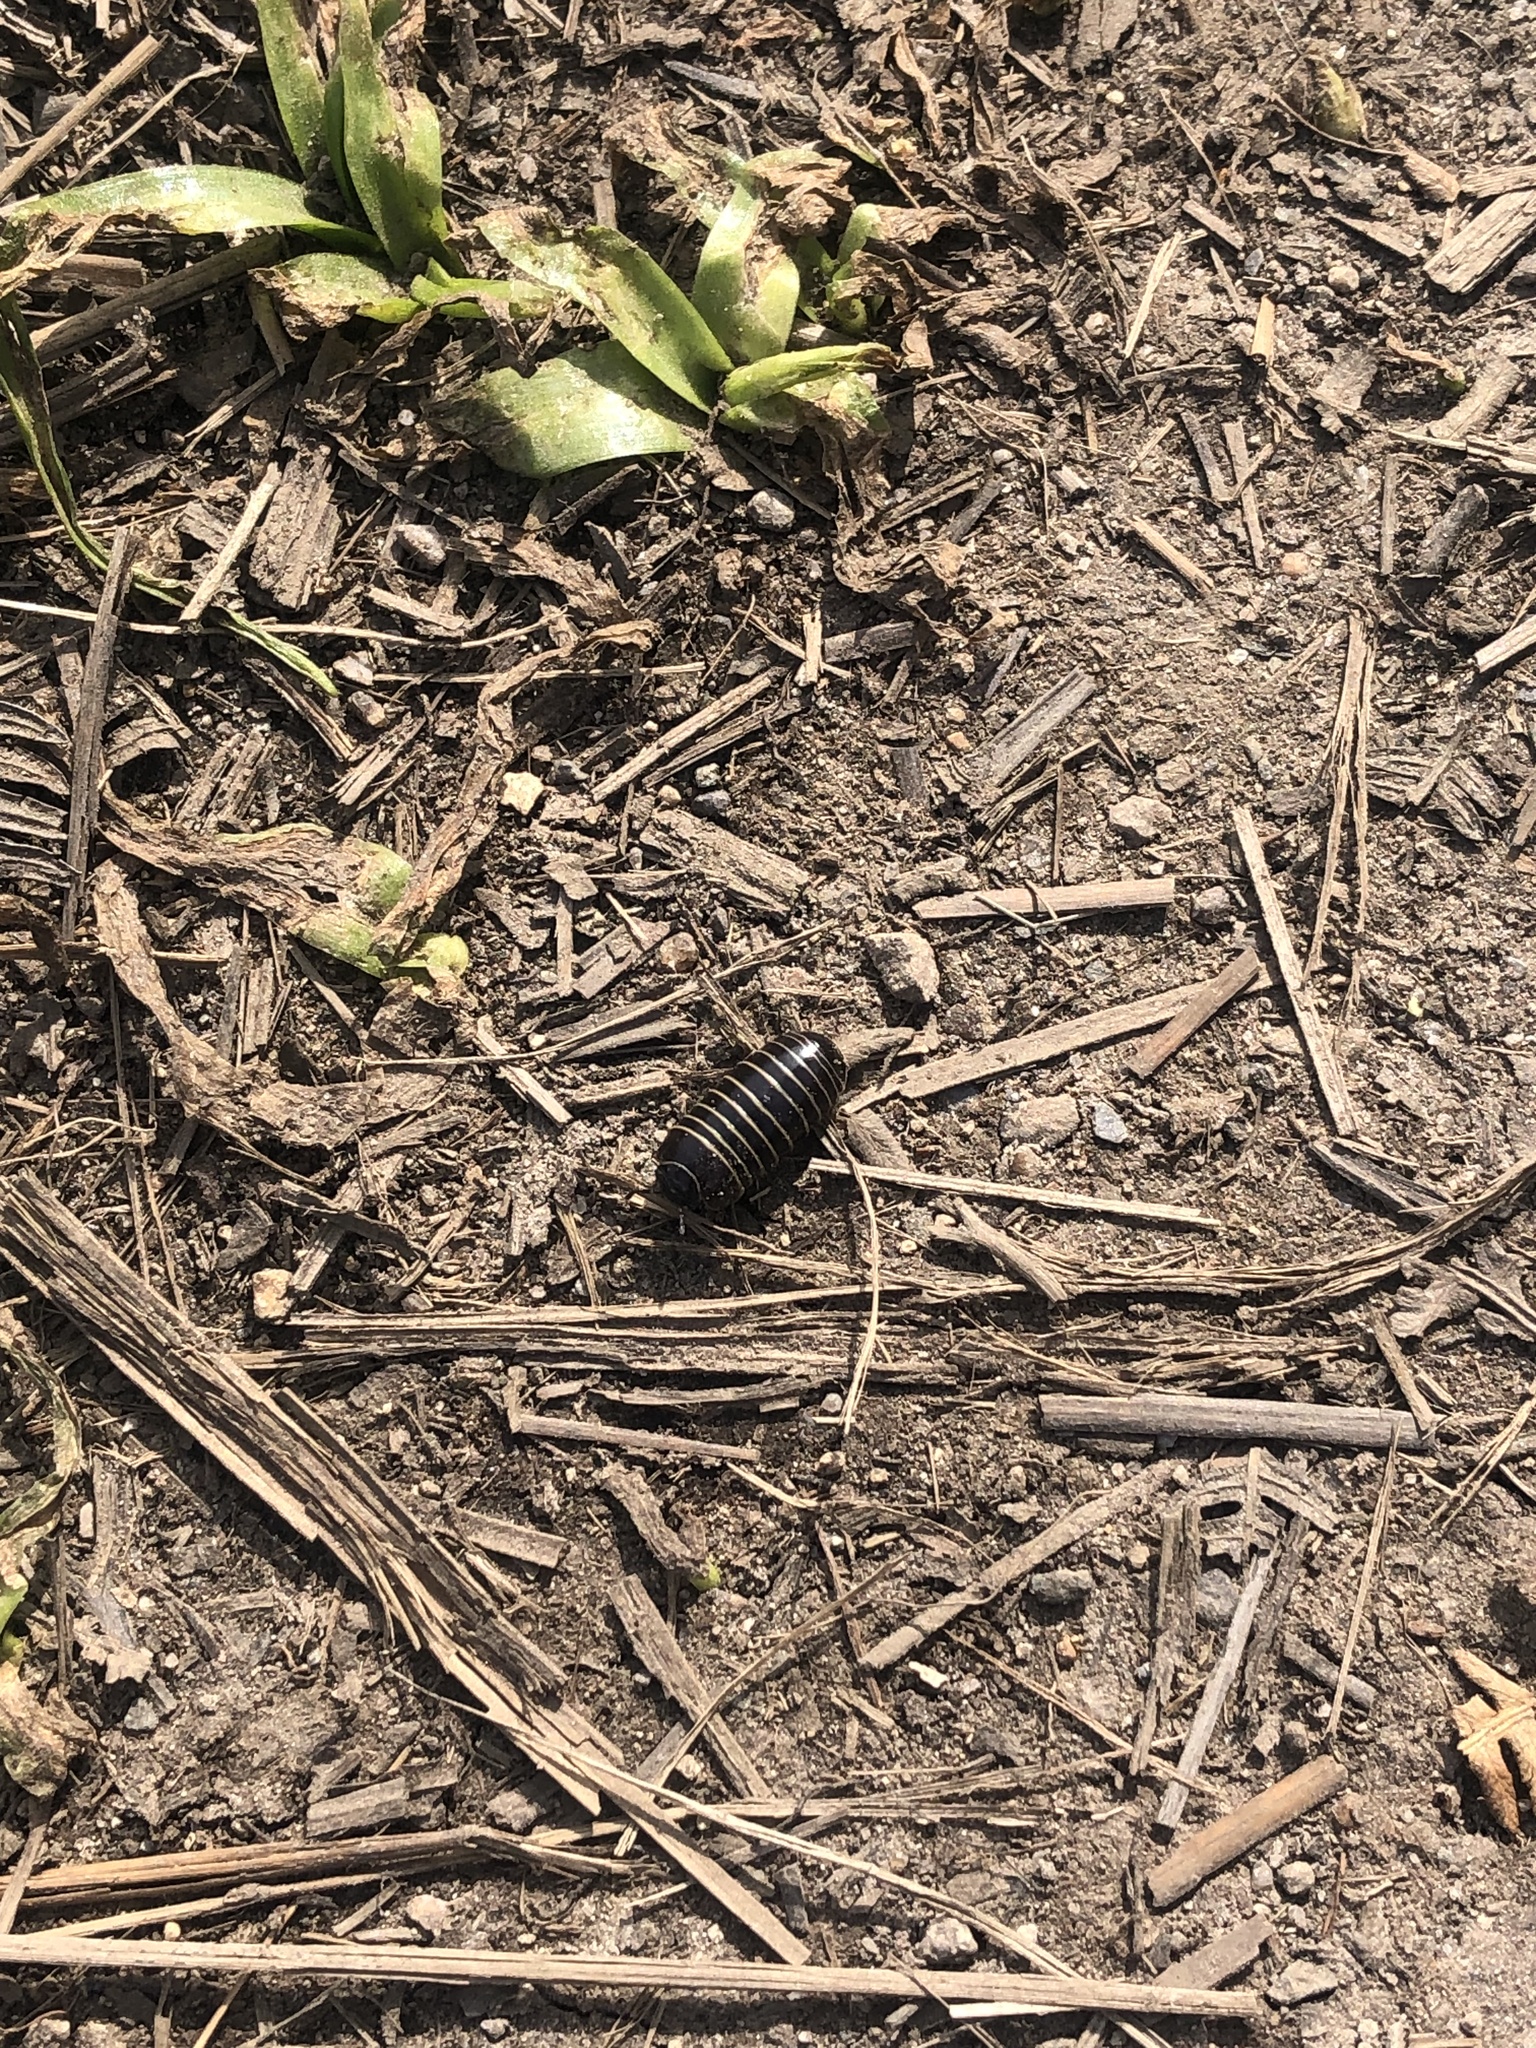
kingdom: Animalia
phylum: Arthropoda
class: Diplopoda
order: Glomerida
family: Glomeridae
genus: Glomeris
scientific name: Glomeris marginata
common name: Bordered pill millipede
